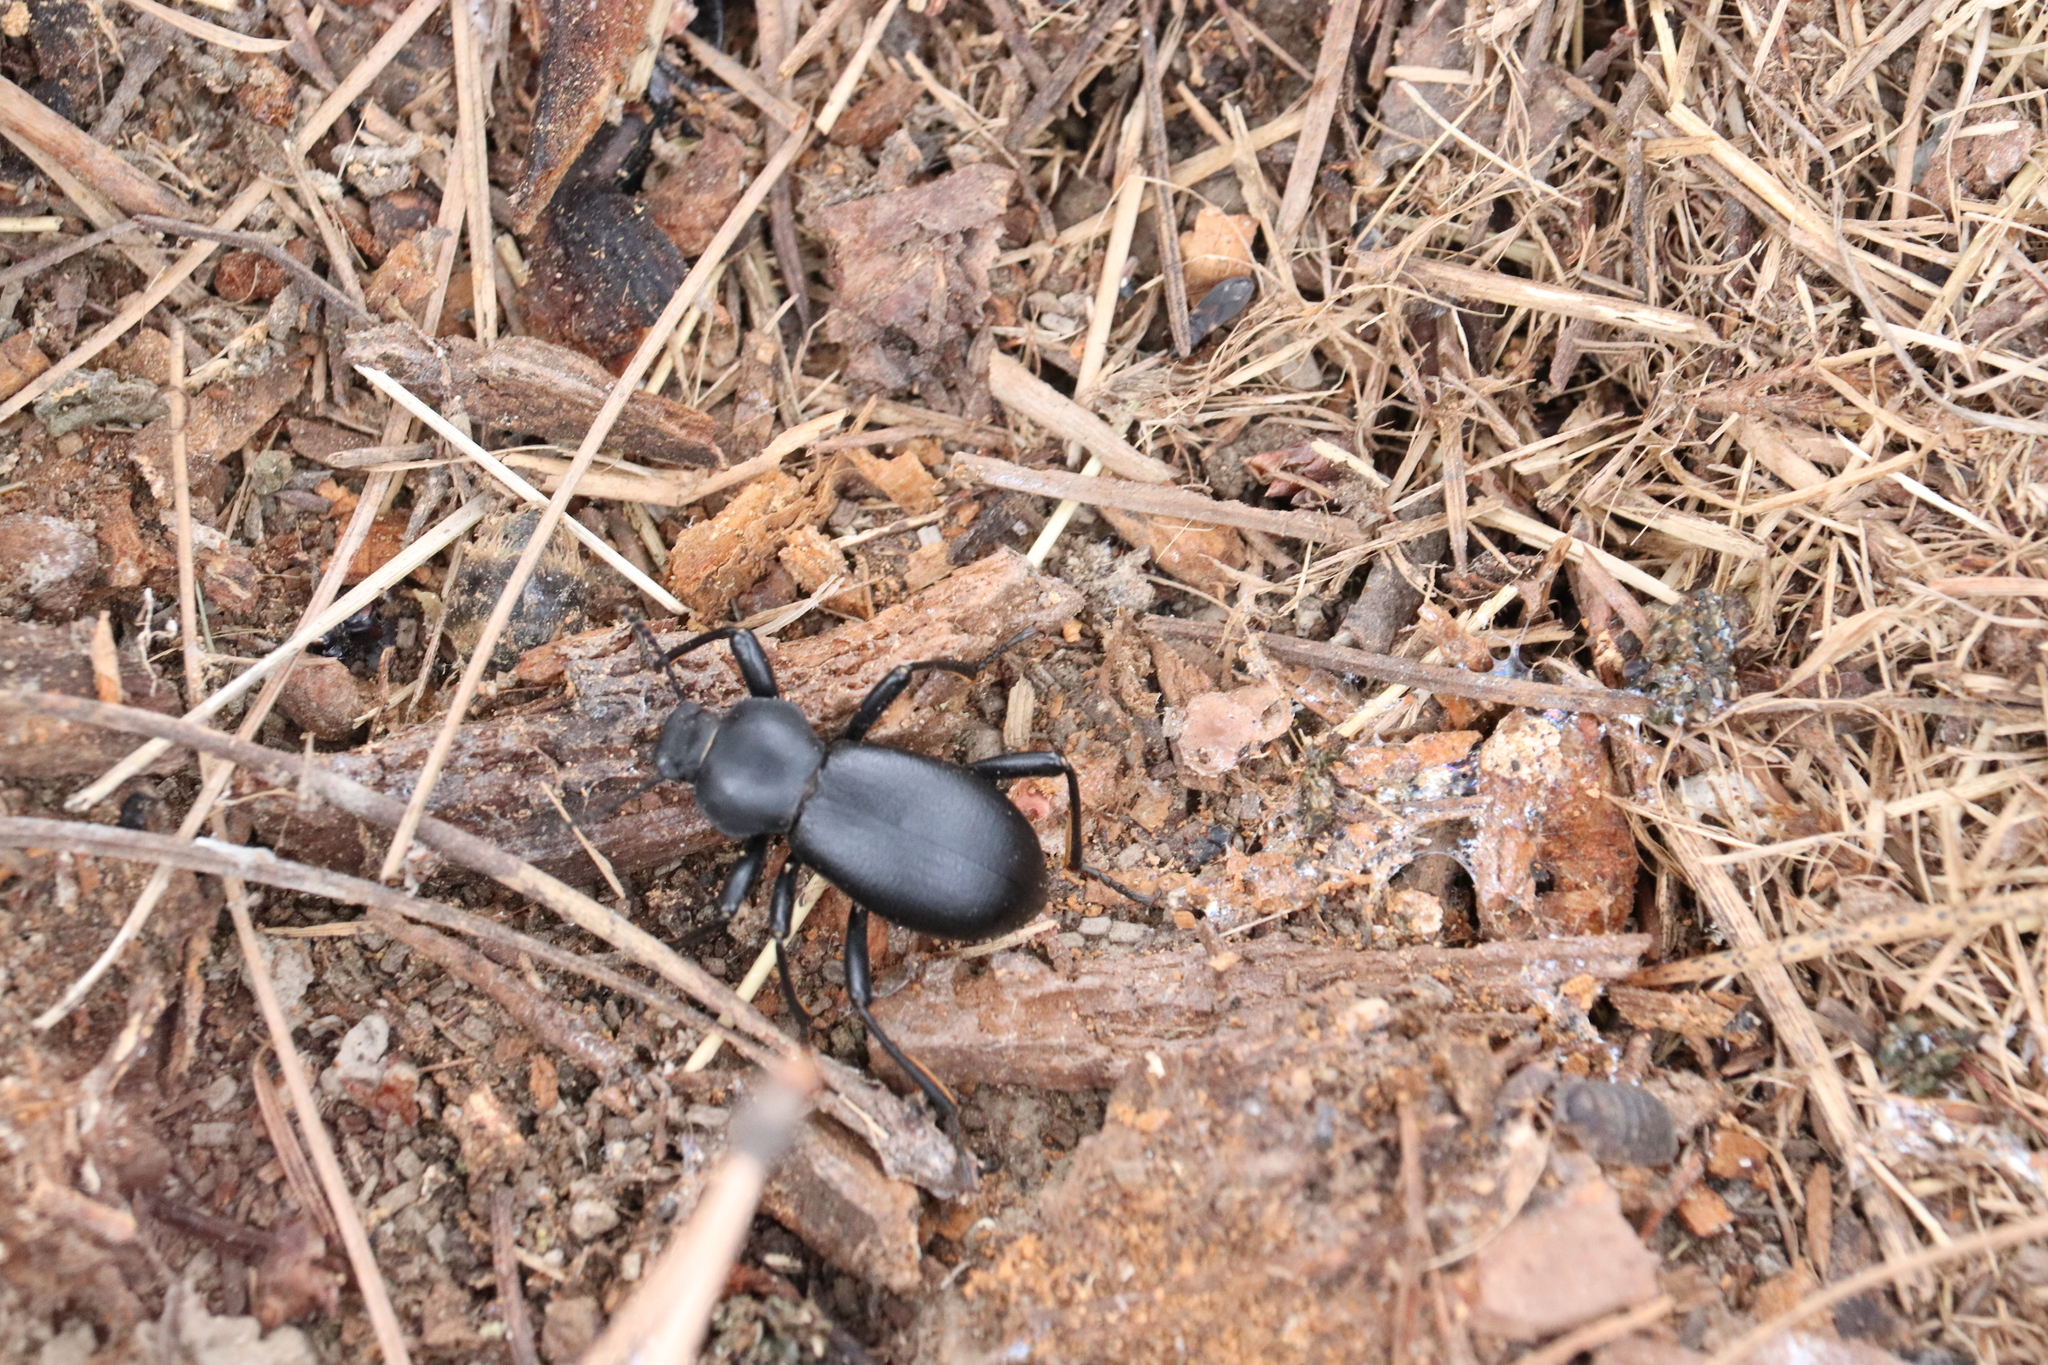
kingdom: Animalia
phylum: Arthropoda
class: Insecta
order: Coleoptera
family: Tenebrionidae
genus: Coelocnemis
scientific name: Coelocnemis dilaticollis
